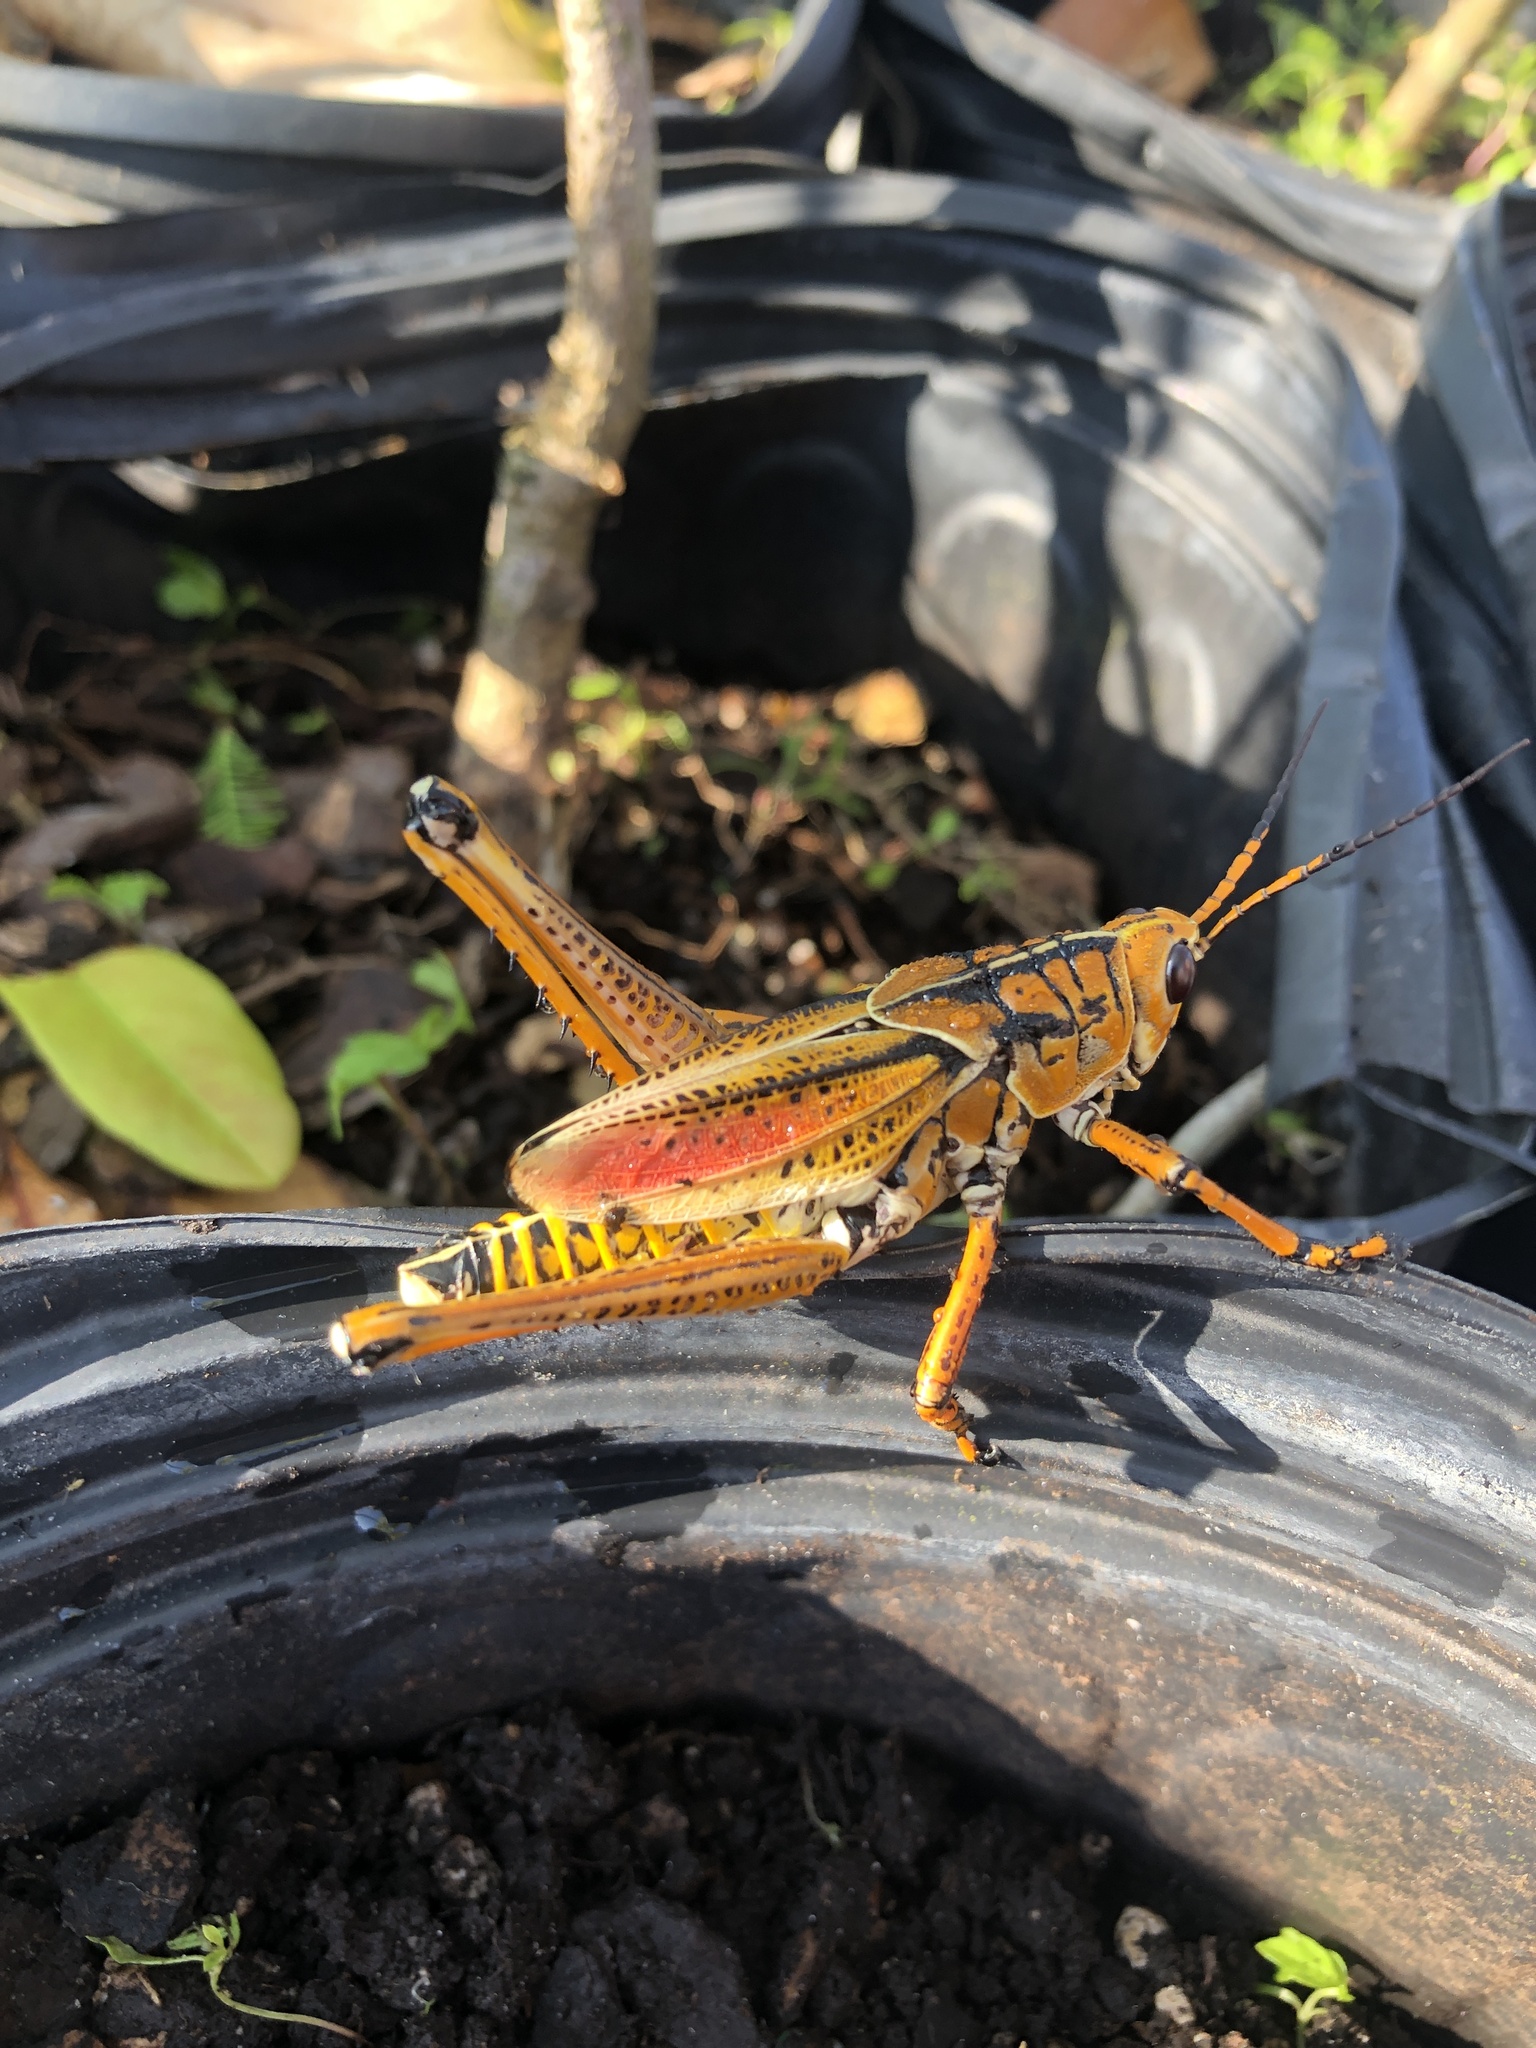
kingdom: Animalia
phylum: Arthropoda
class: Insecta
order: Orthoptera
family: Romaleidae
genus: Romalea
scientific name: Romalea microptera
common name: Eastern lubber grasshopper
